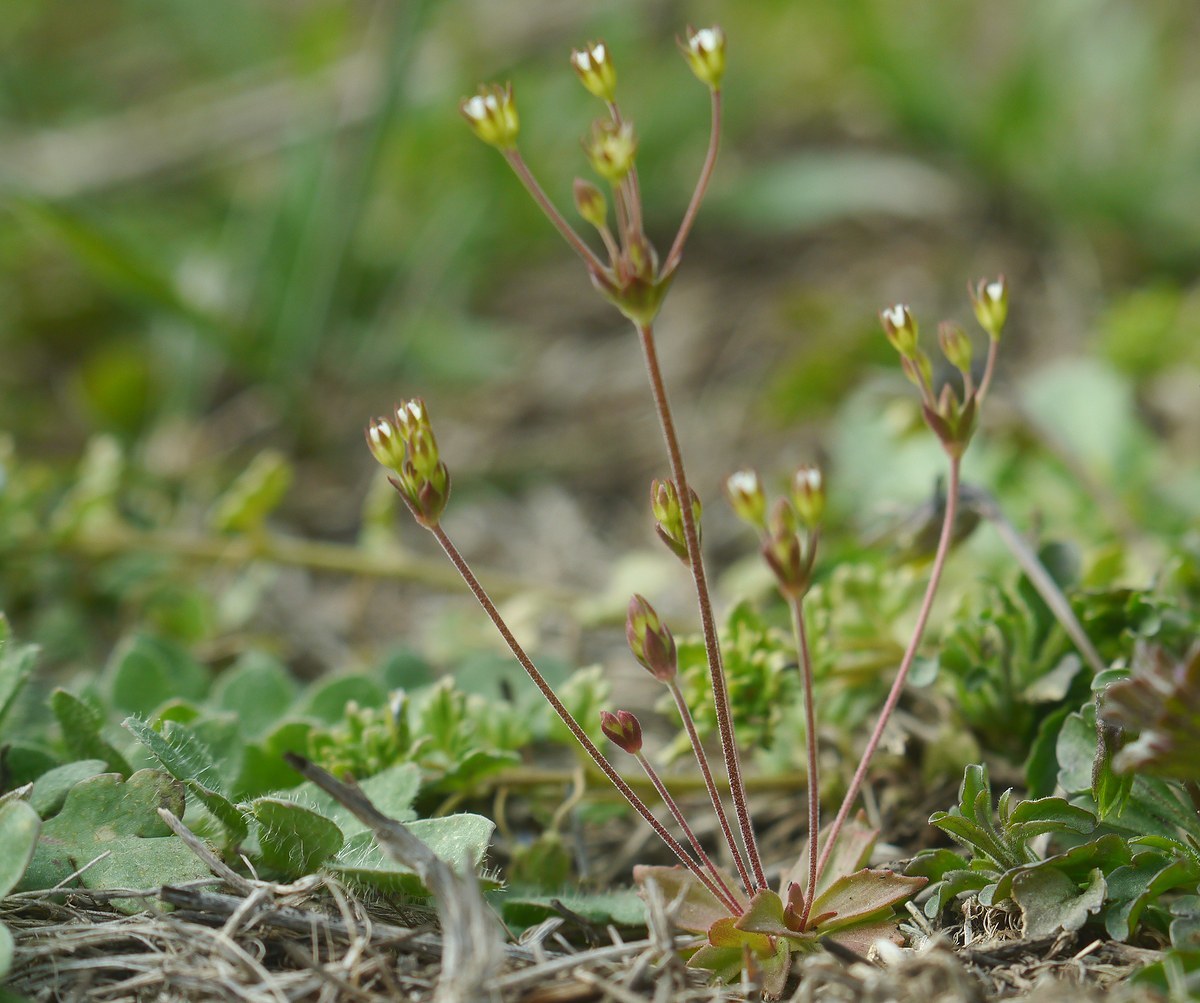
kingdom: Plantae
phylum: Tracheophyta
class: Magnoliopsida
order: Ericales
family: Primulaceae
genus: Androsace
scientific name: Androsace elongata
